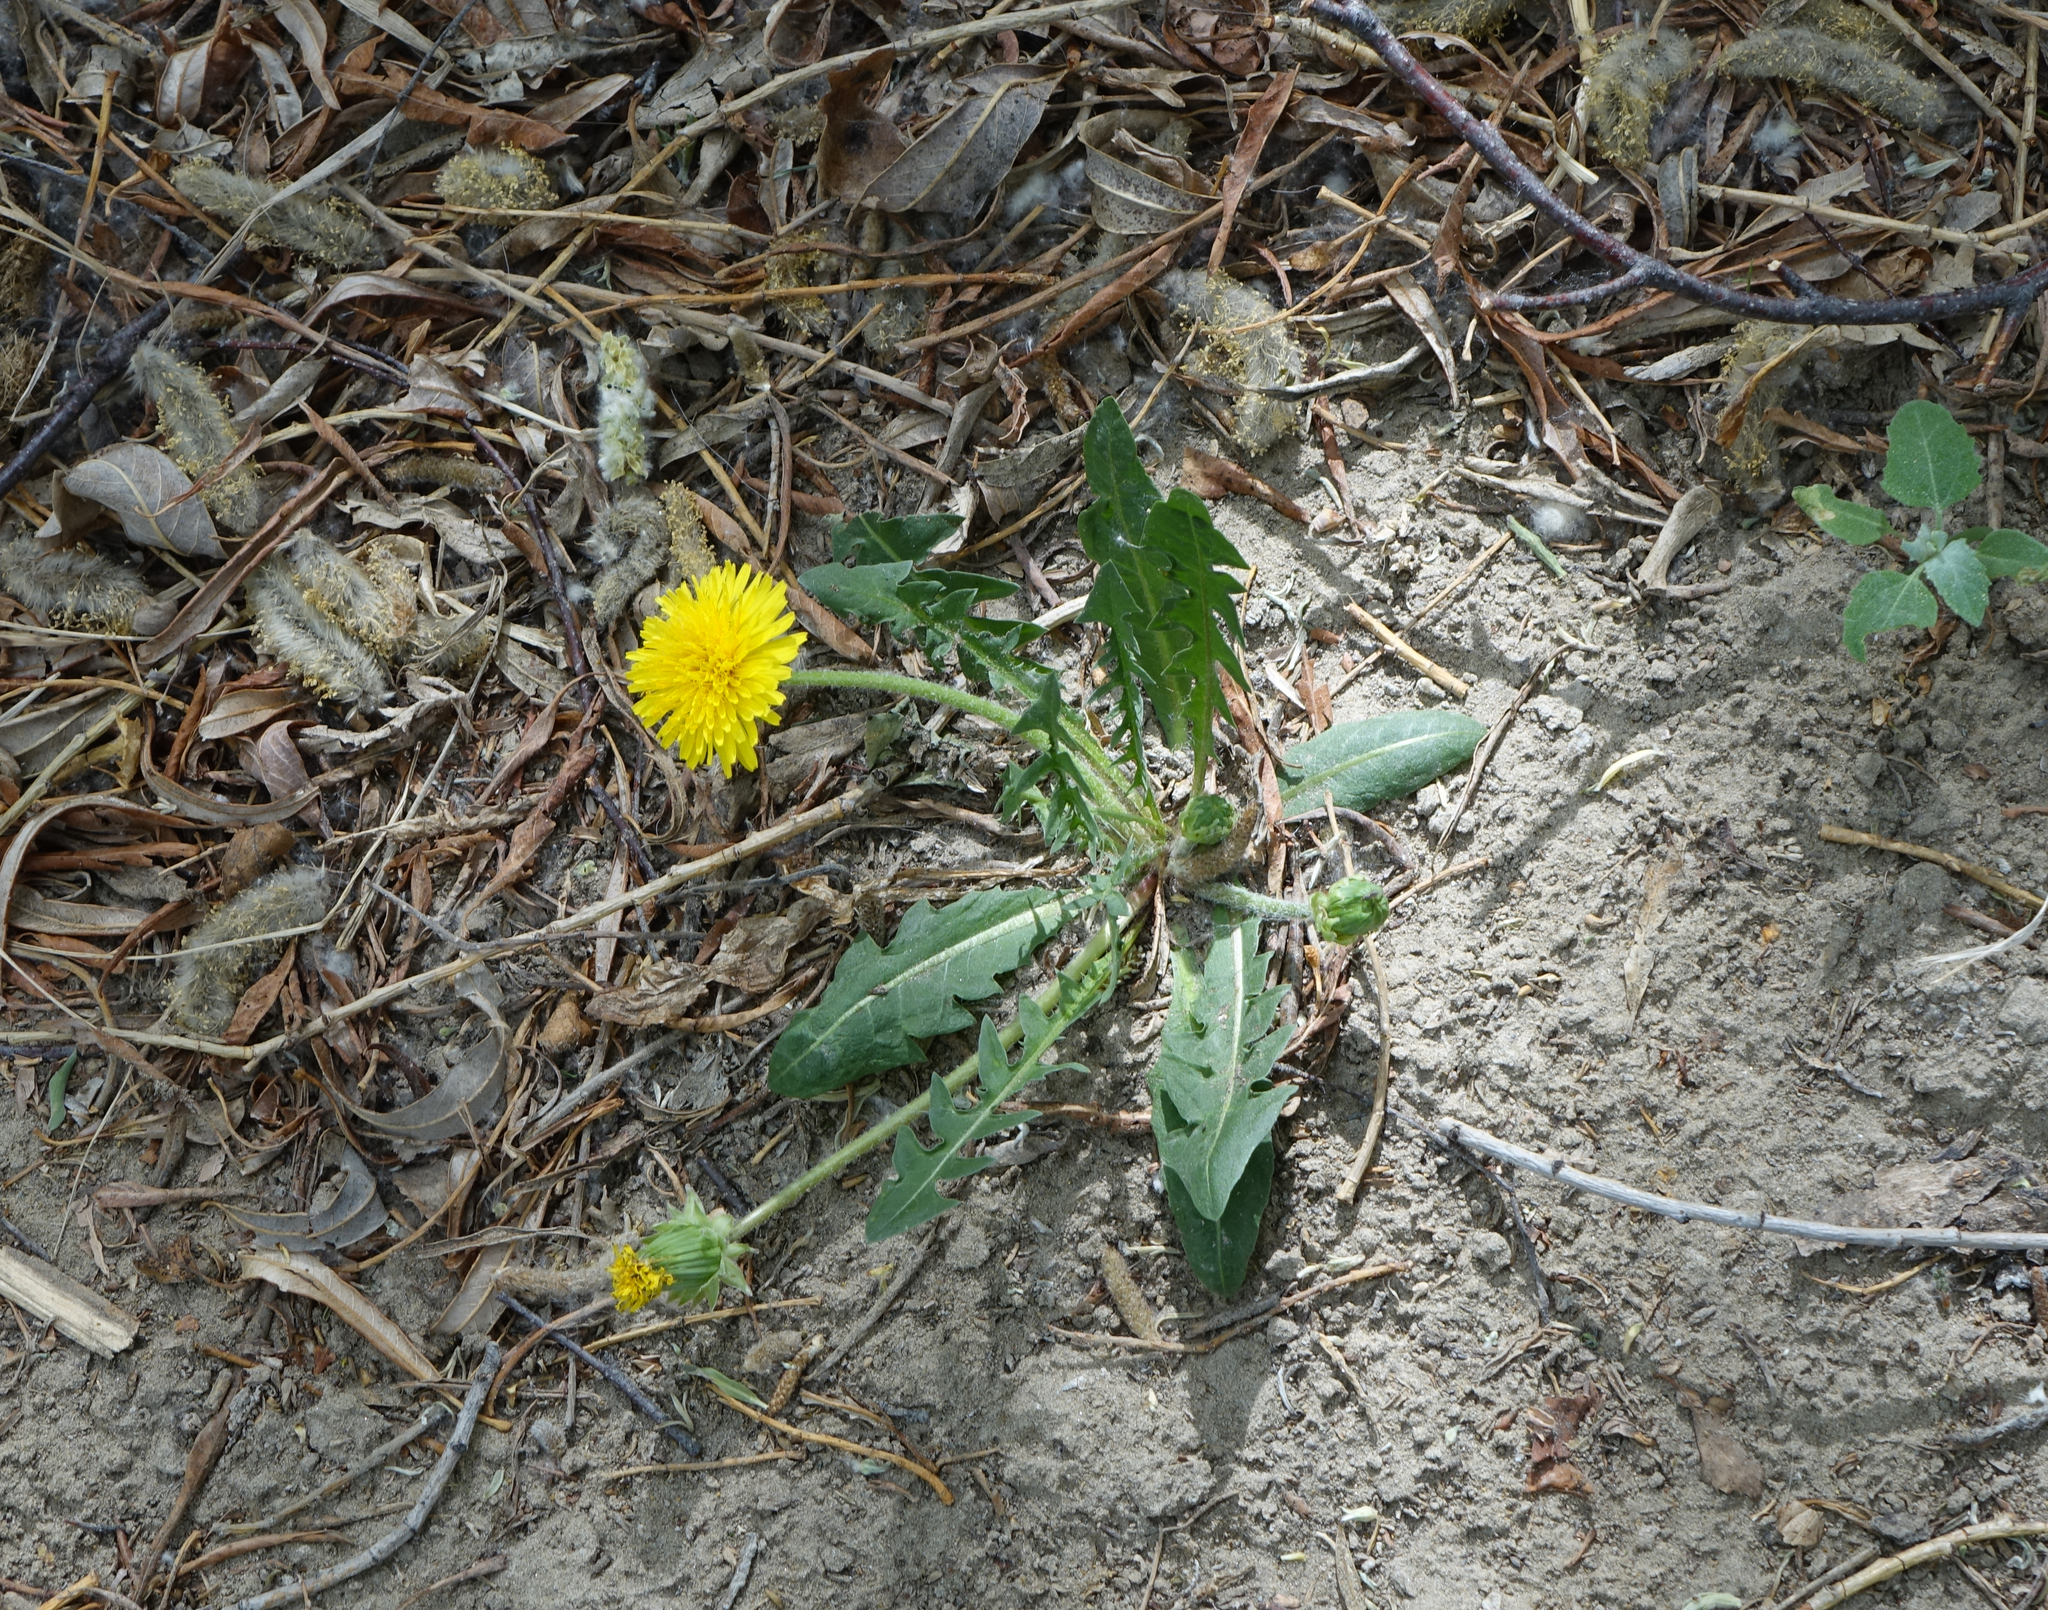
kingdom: Plantae
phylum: Tracheophyta
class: Magnoliopsida
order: Asterales
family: Asteraceae
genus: Taraxacum
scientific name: Taraxacum officinale
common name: Common dandelion
